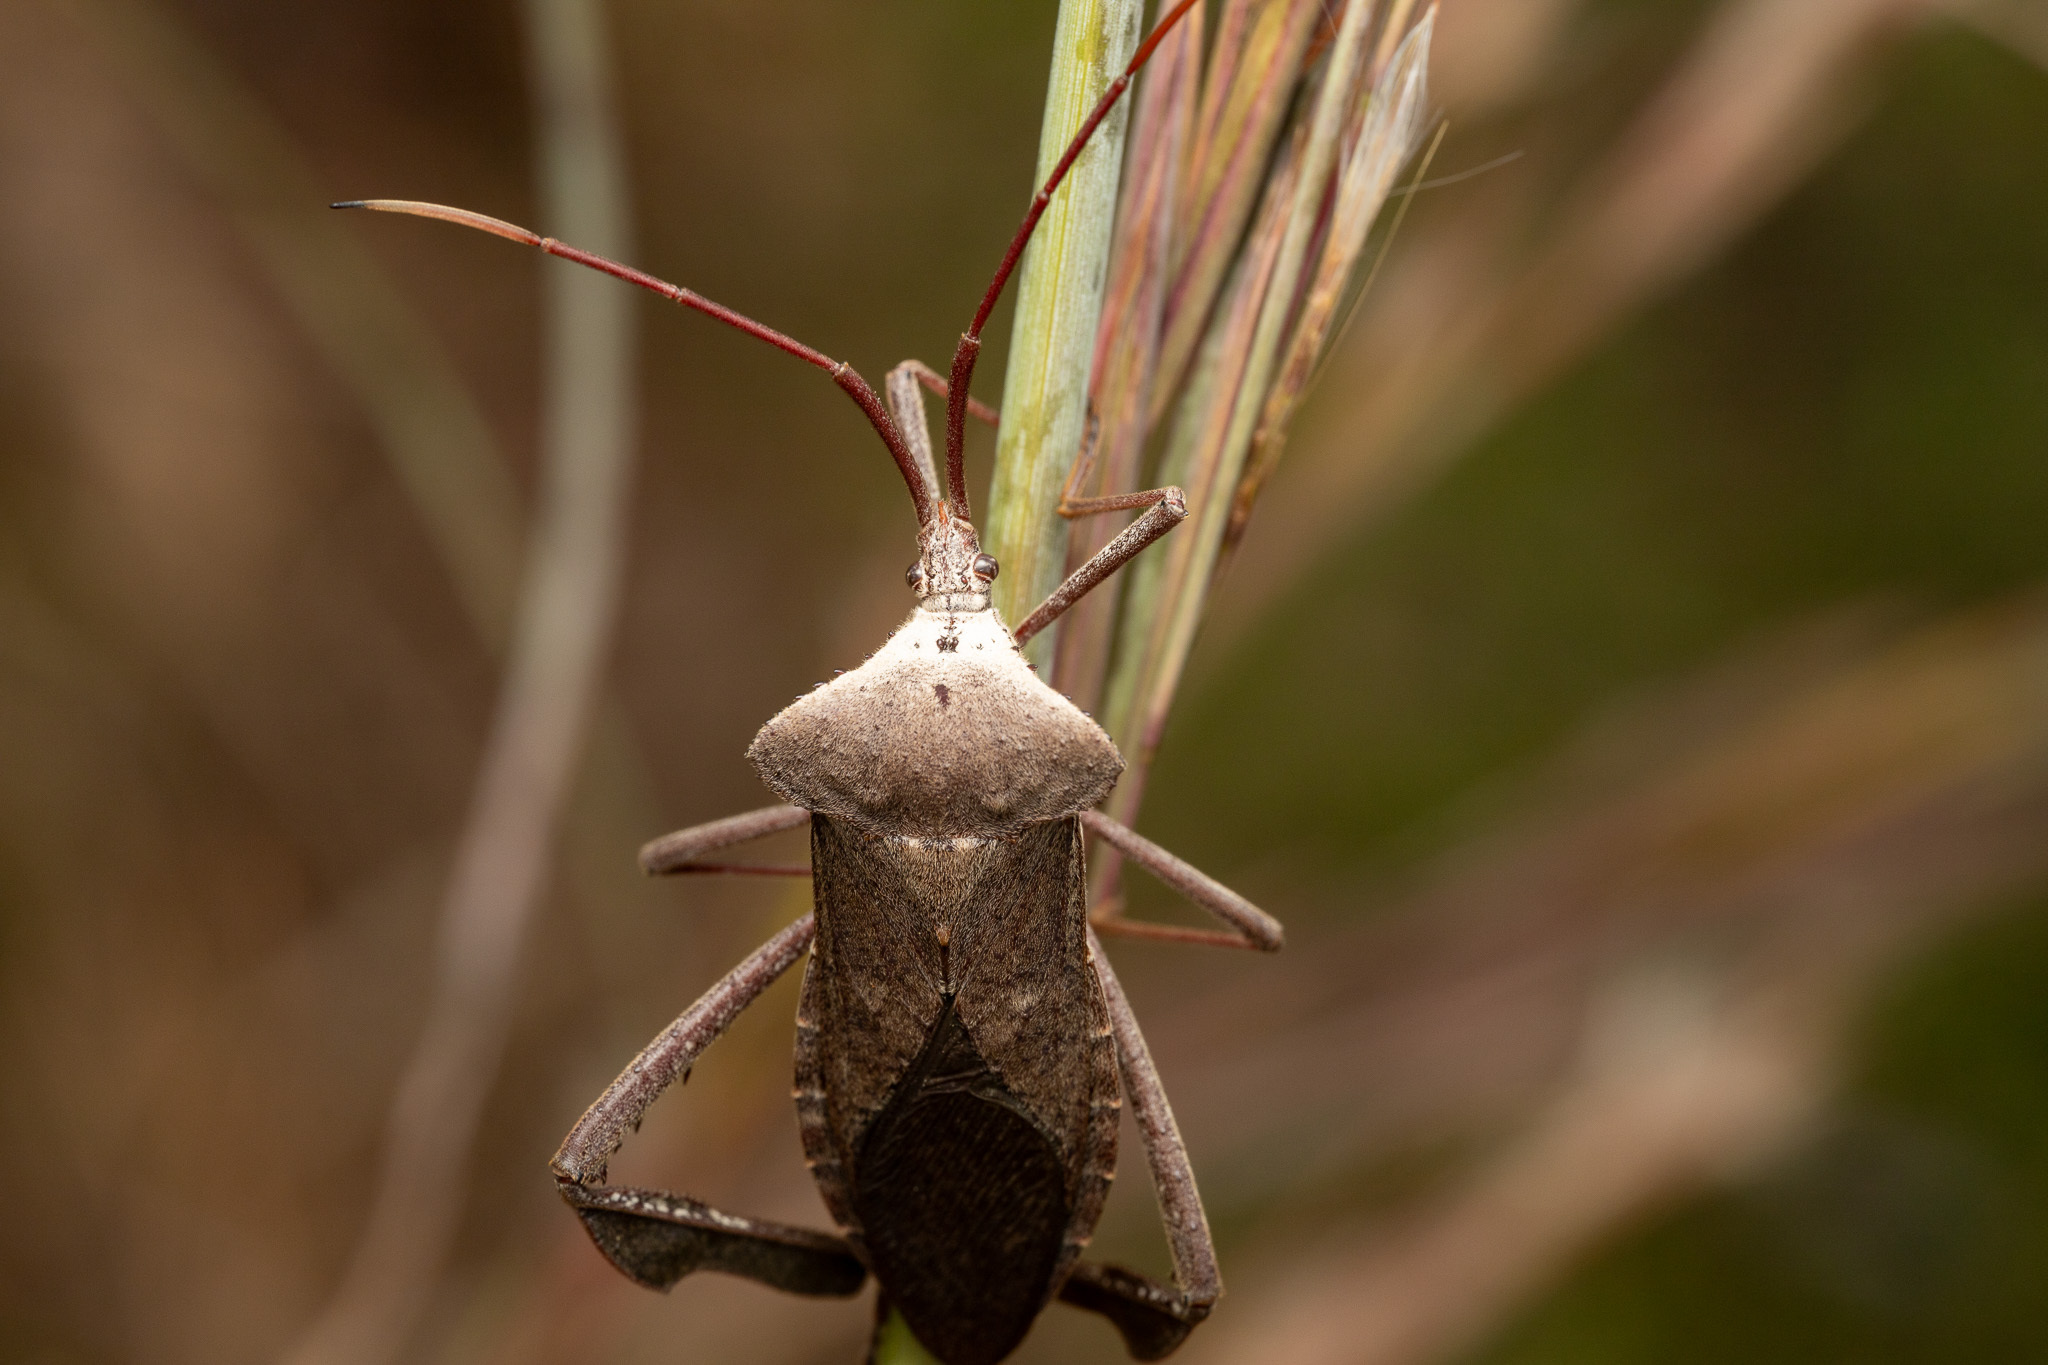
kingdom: Animalia
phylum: Arthropoda
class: Insecta
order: Hemiptera
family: Coreidae
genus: Acanthocephala
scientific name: Acanthocephala declivis
